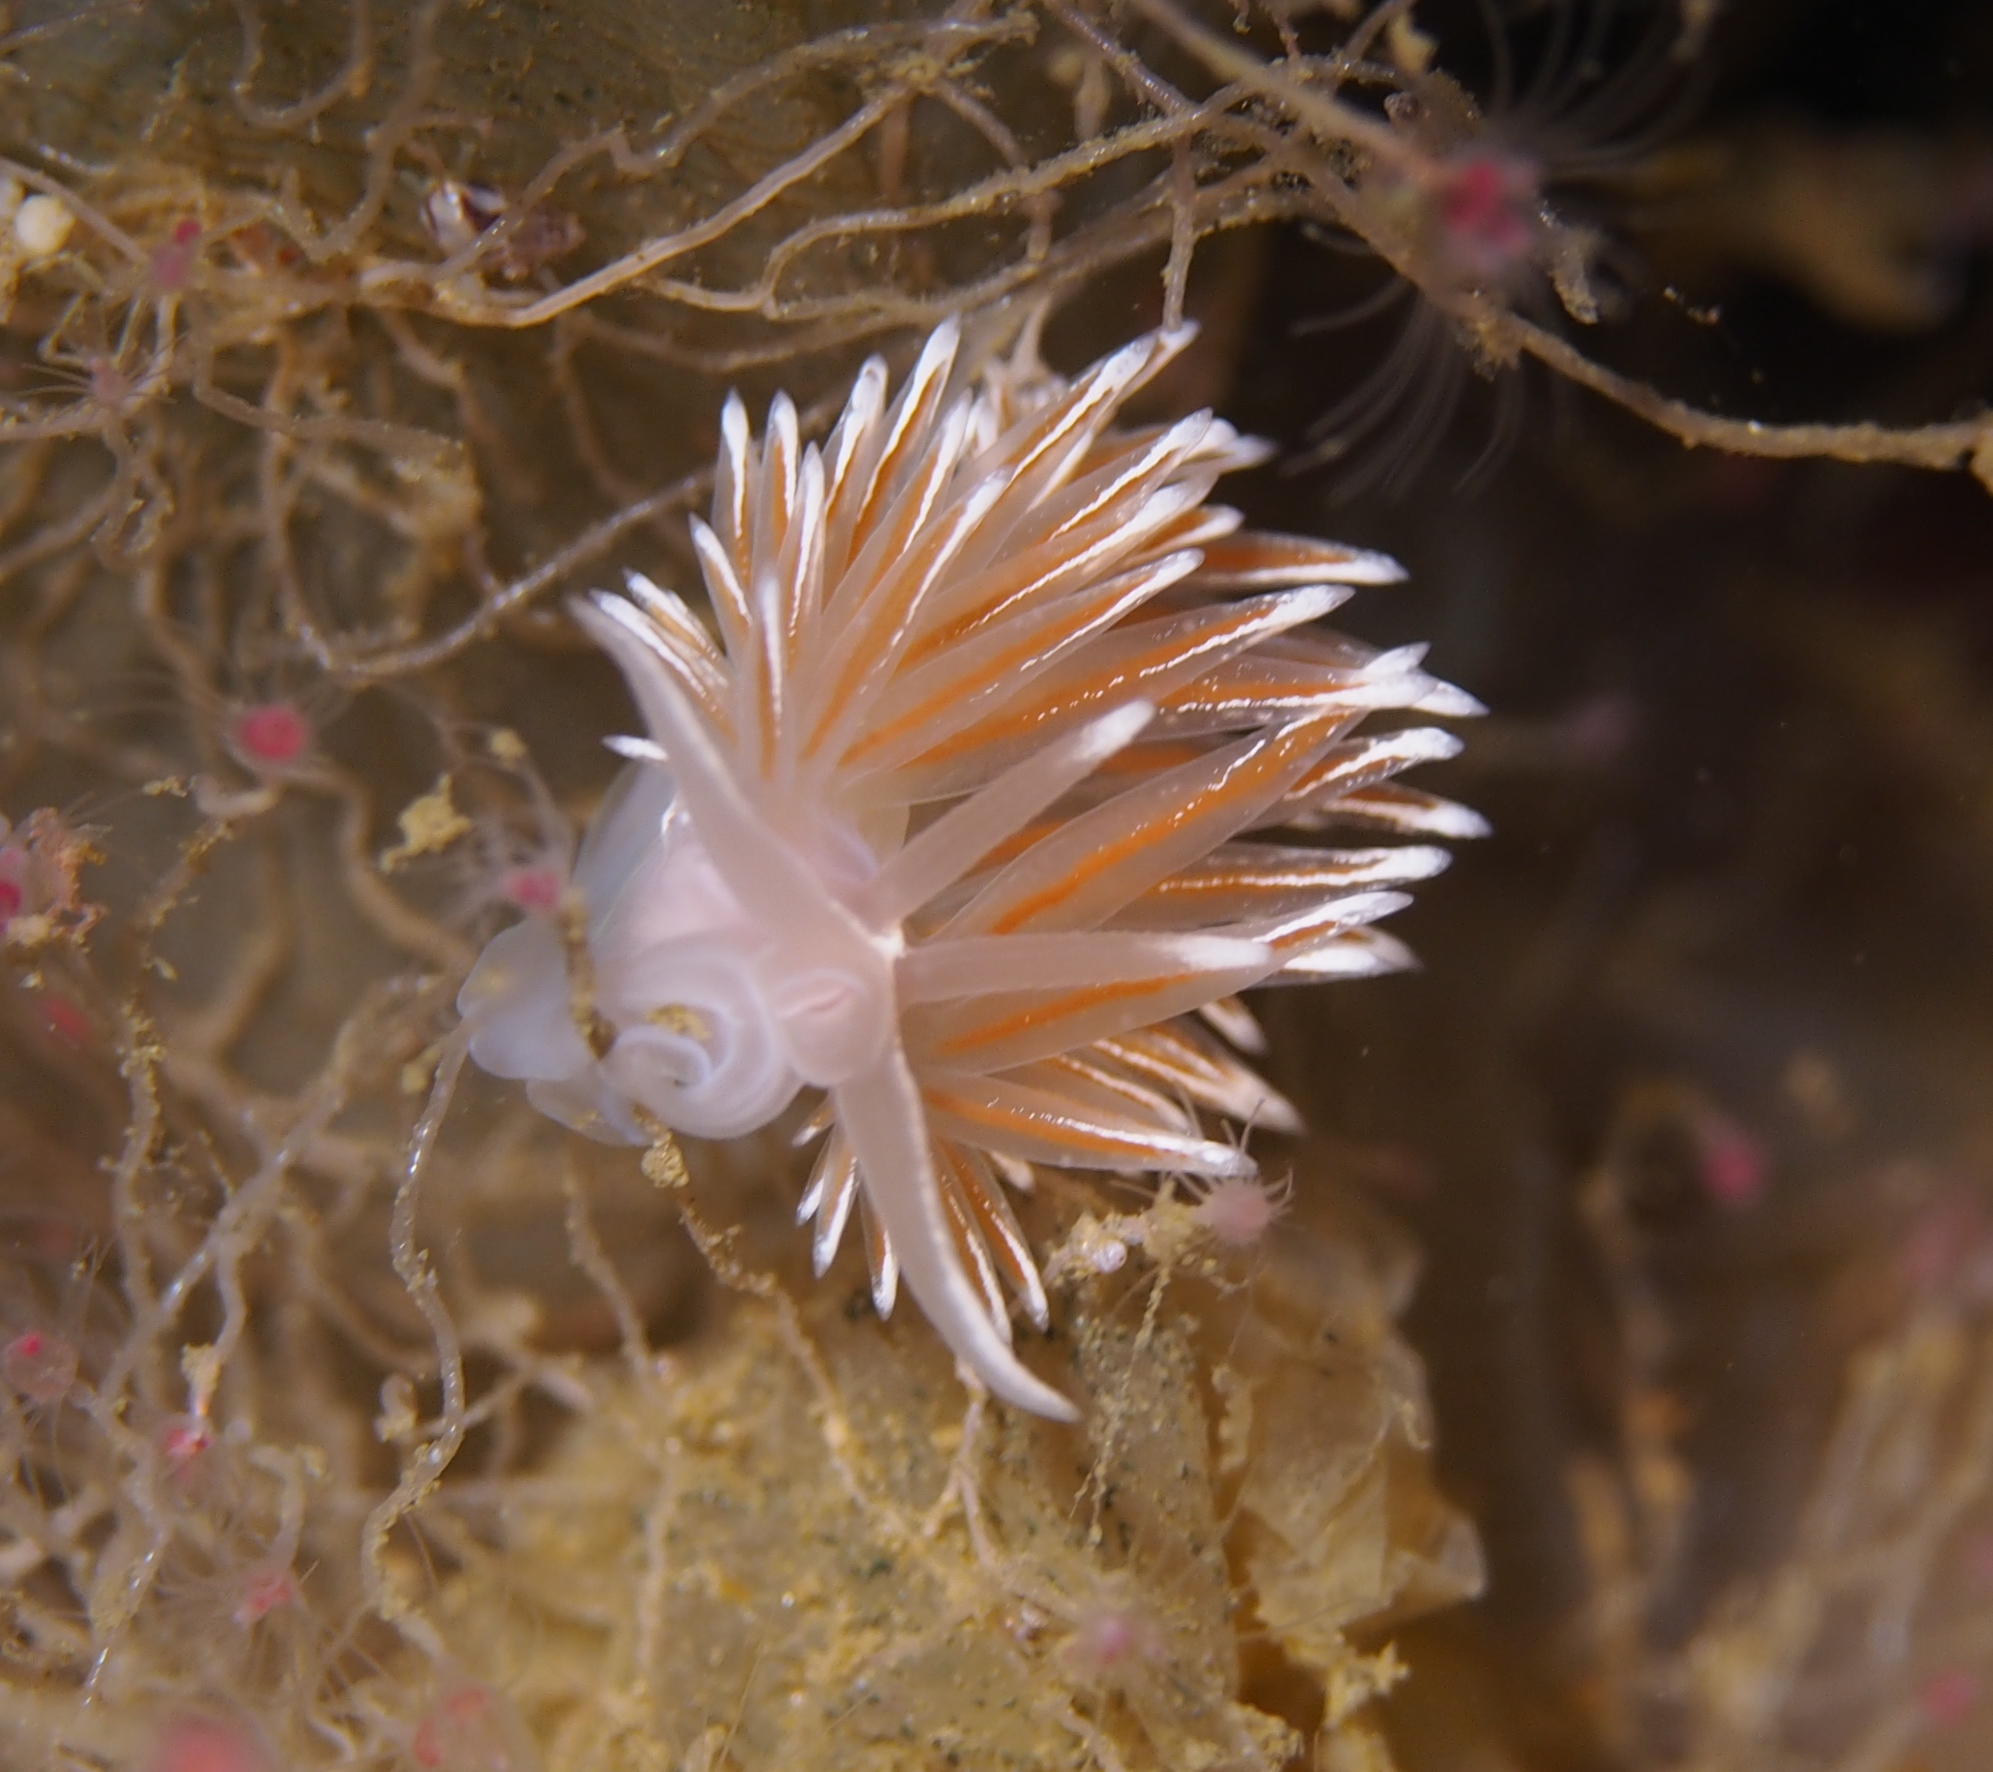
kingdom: Animalia
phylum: Mollusca
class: Gastropoda
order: Nudibranchia
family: Coryphellidae
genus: Coryphella
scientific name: Coryphella lineata
